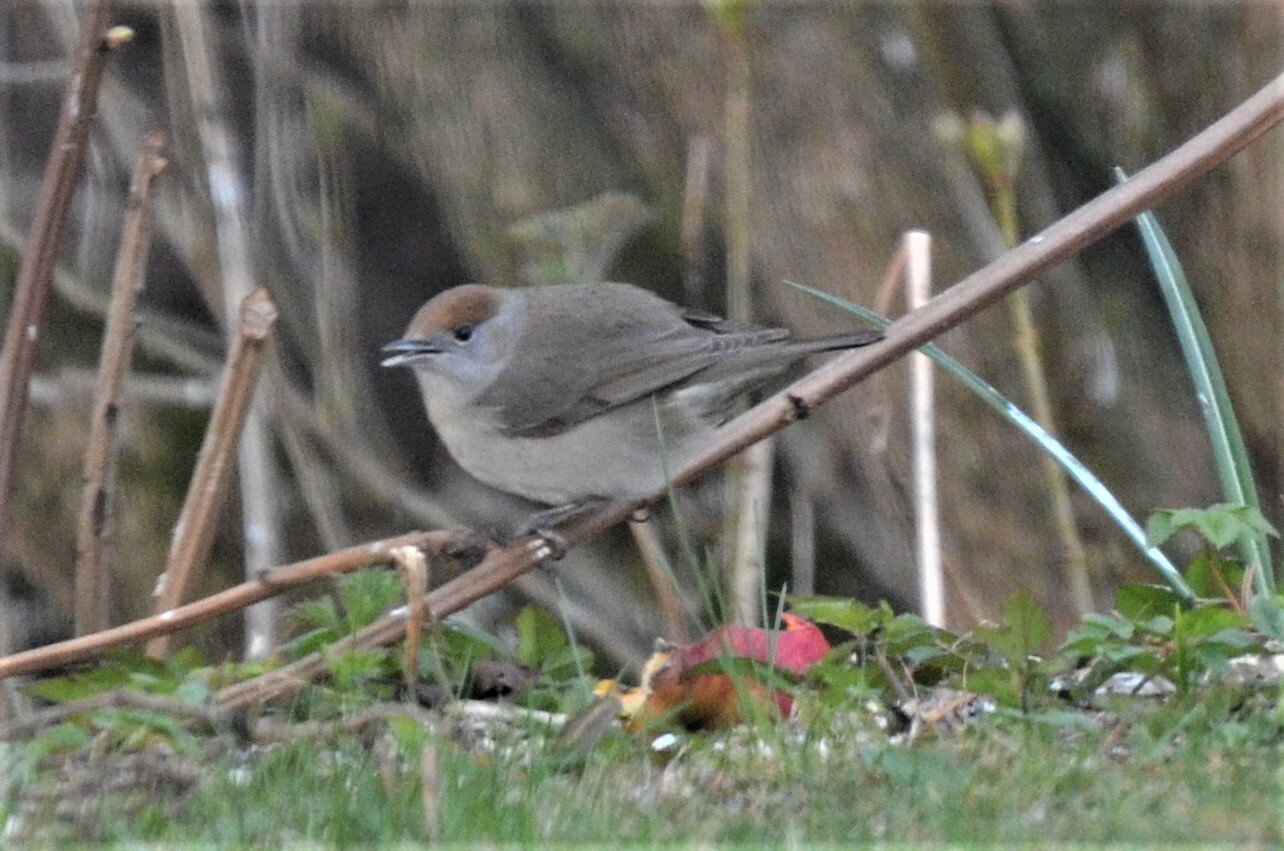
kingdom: Animalia
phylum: Chordata
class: Aves
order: Passeriformes
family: Sylviidae
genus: Sylvia
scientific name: Sylvia atricapilla
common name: Eurasian blackcap
